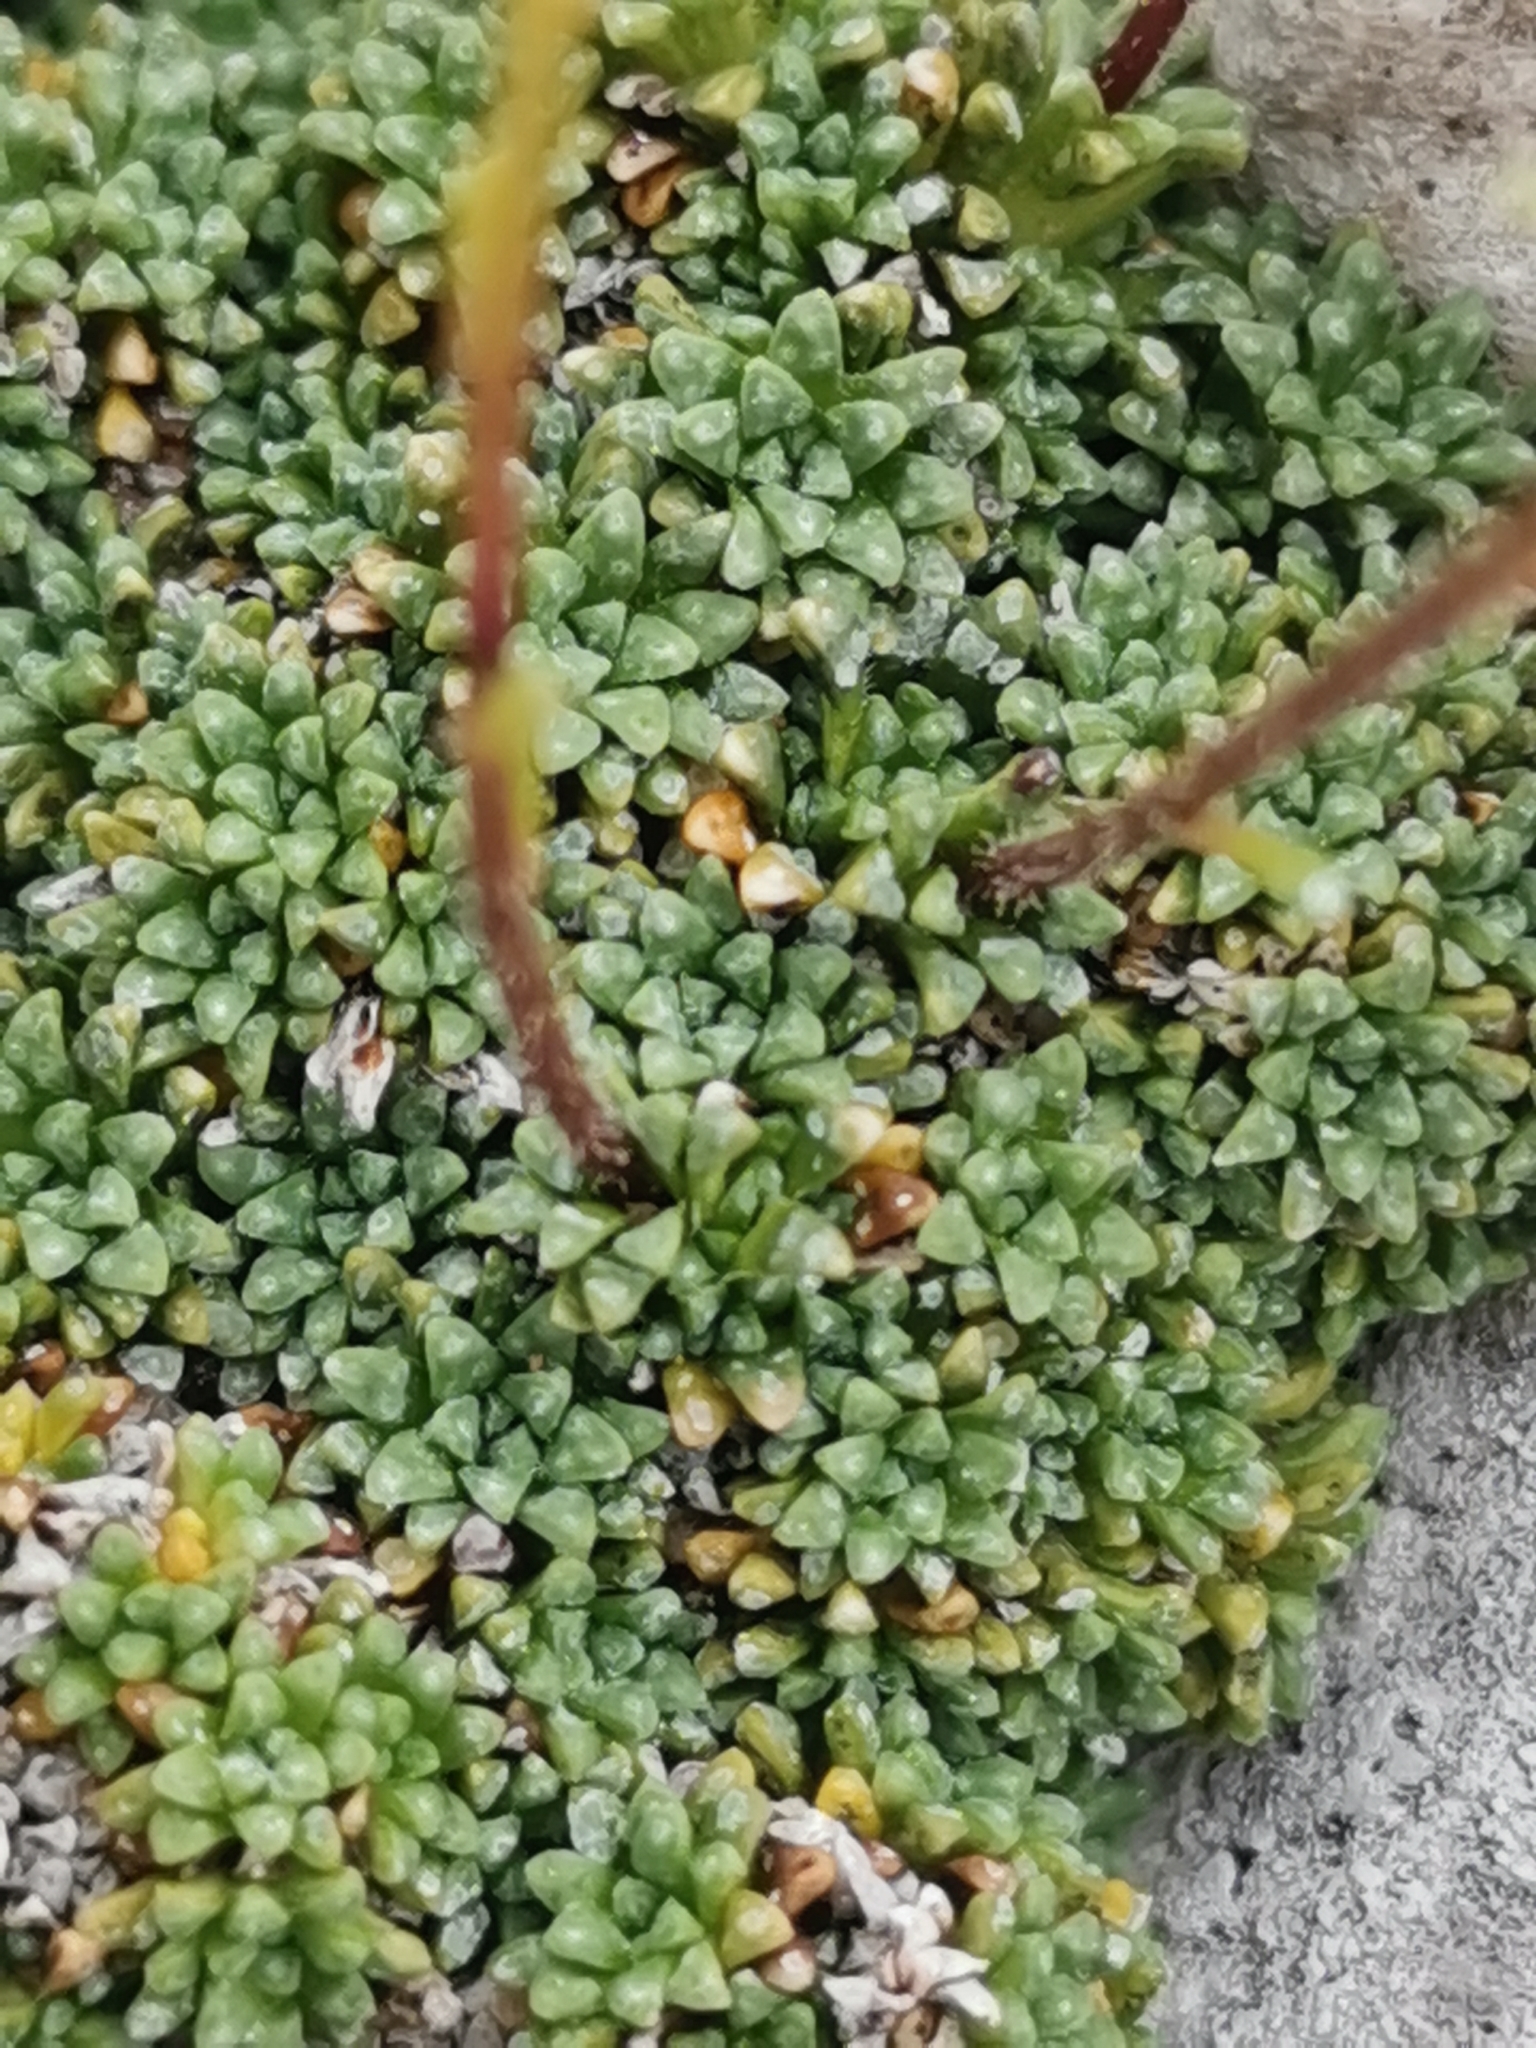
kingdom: Plantae
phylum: Tracheophyta
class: Magnoliopsida
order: Saxifragales
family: Saxifragaceae
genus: Saxifraga
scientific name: Saxifraga squarrosa
